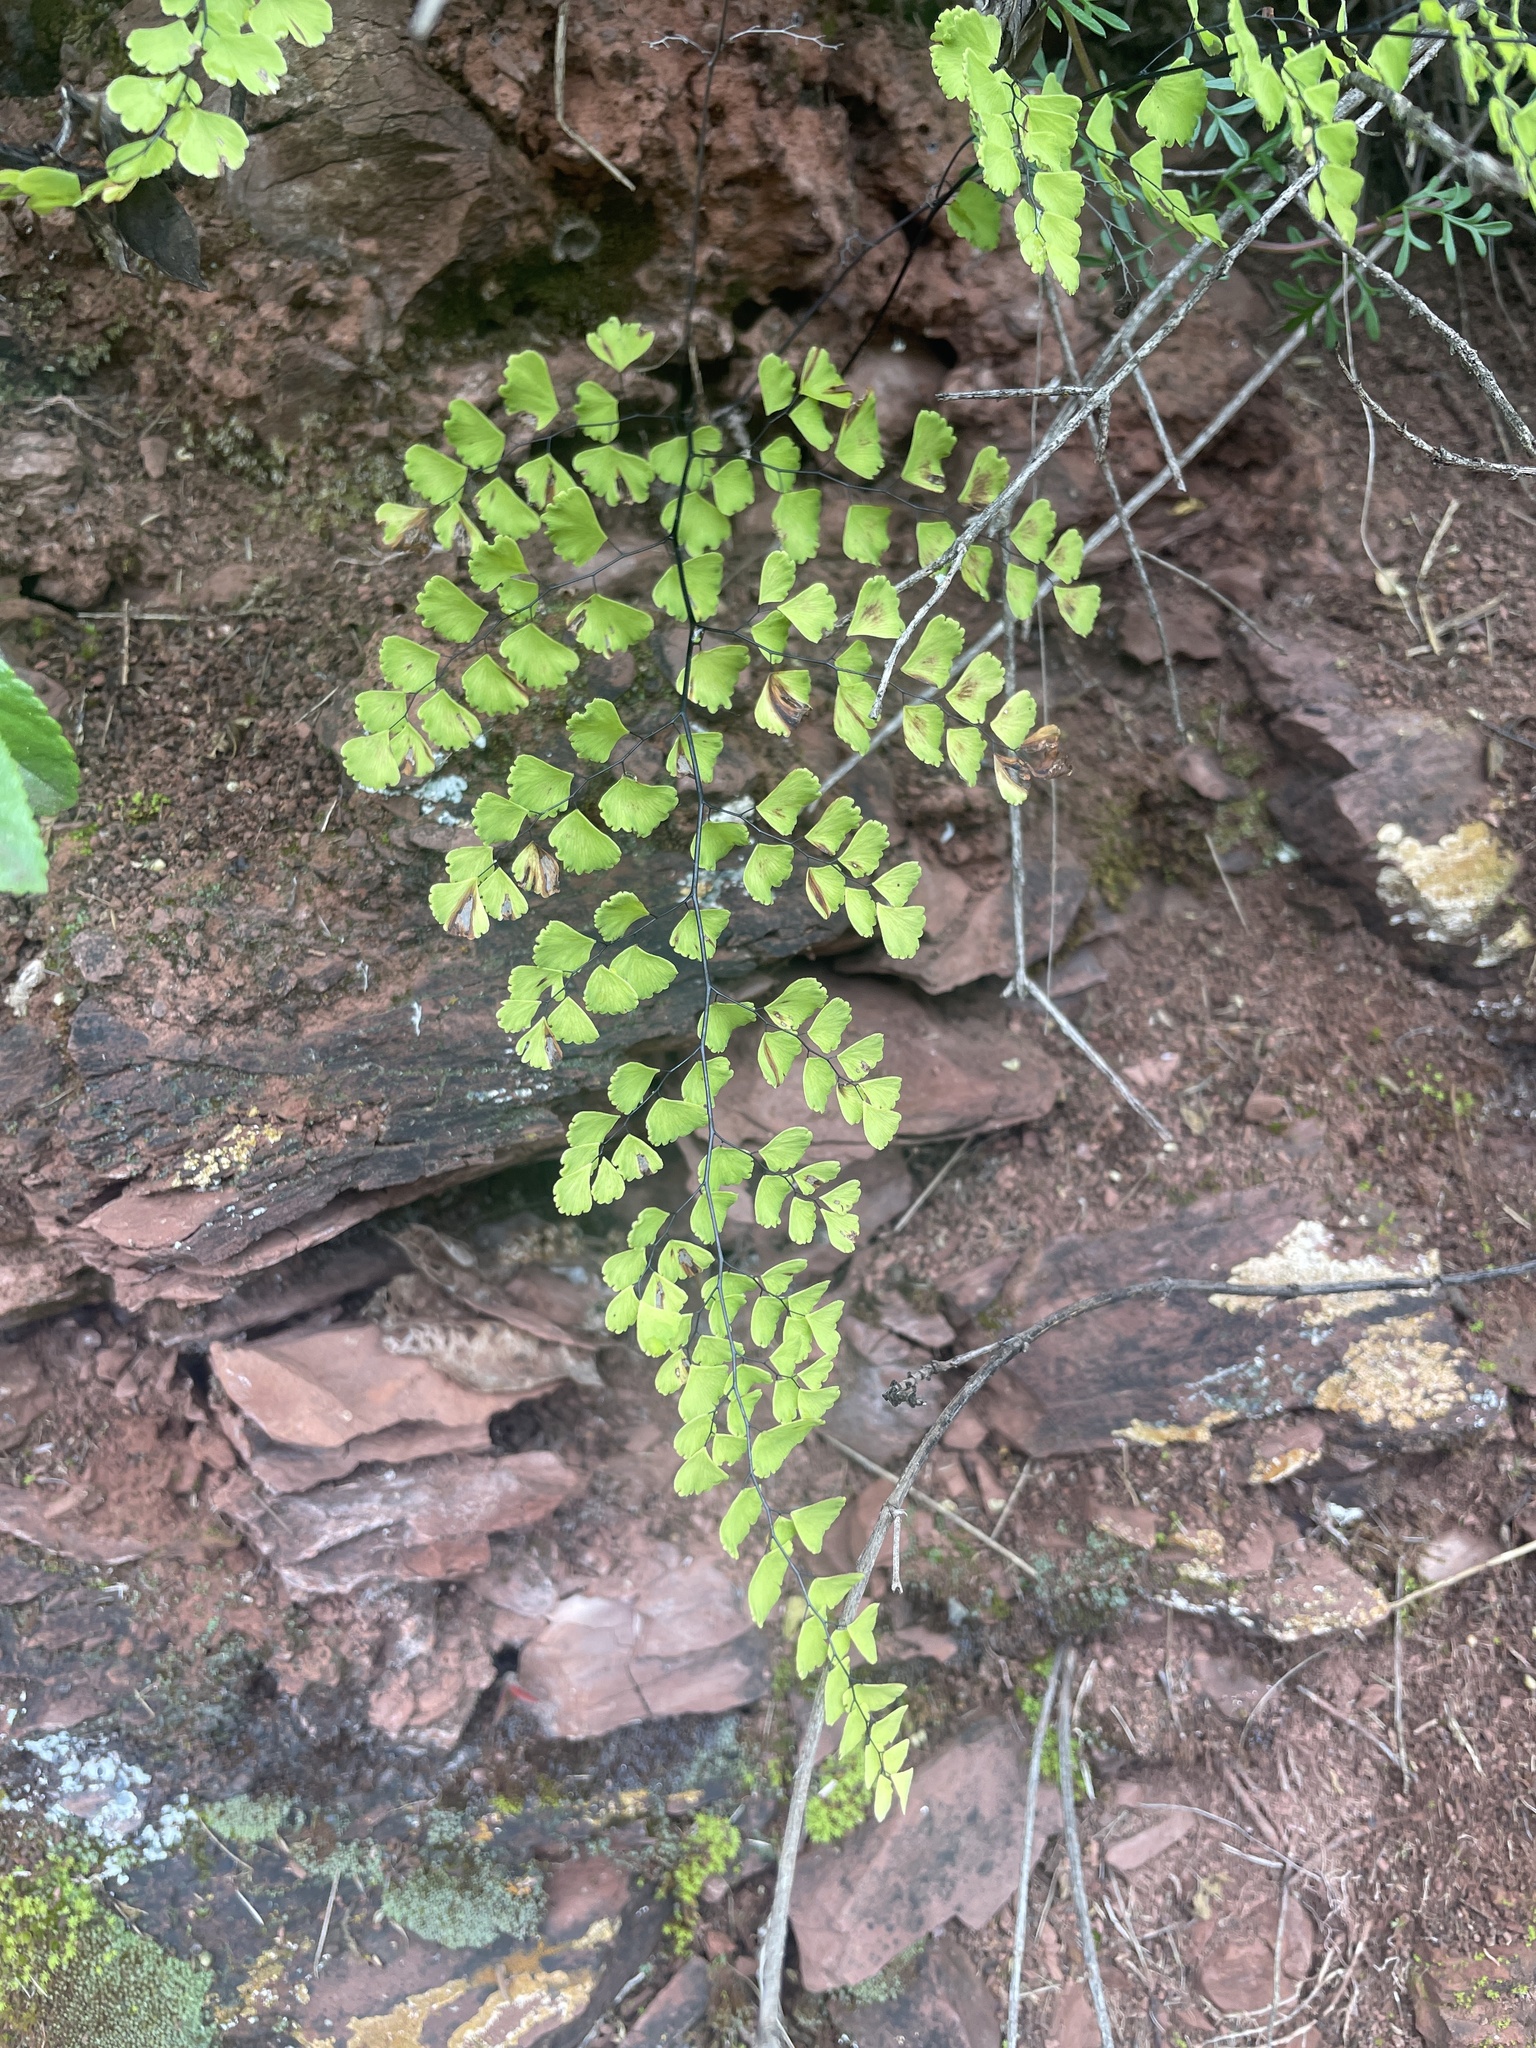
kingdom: Plantae
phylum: Tracheophyta
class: Polypodiopsida
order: Polypodiales
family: Pteridaceae
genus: Adiantum
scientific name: Adiantum orbignyanum
